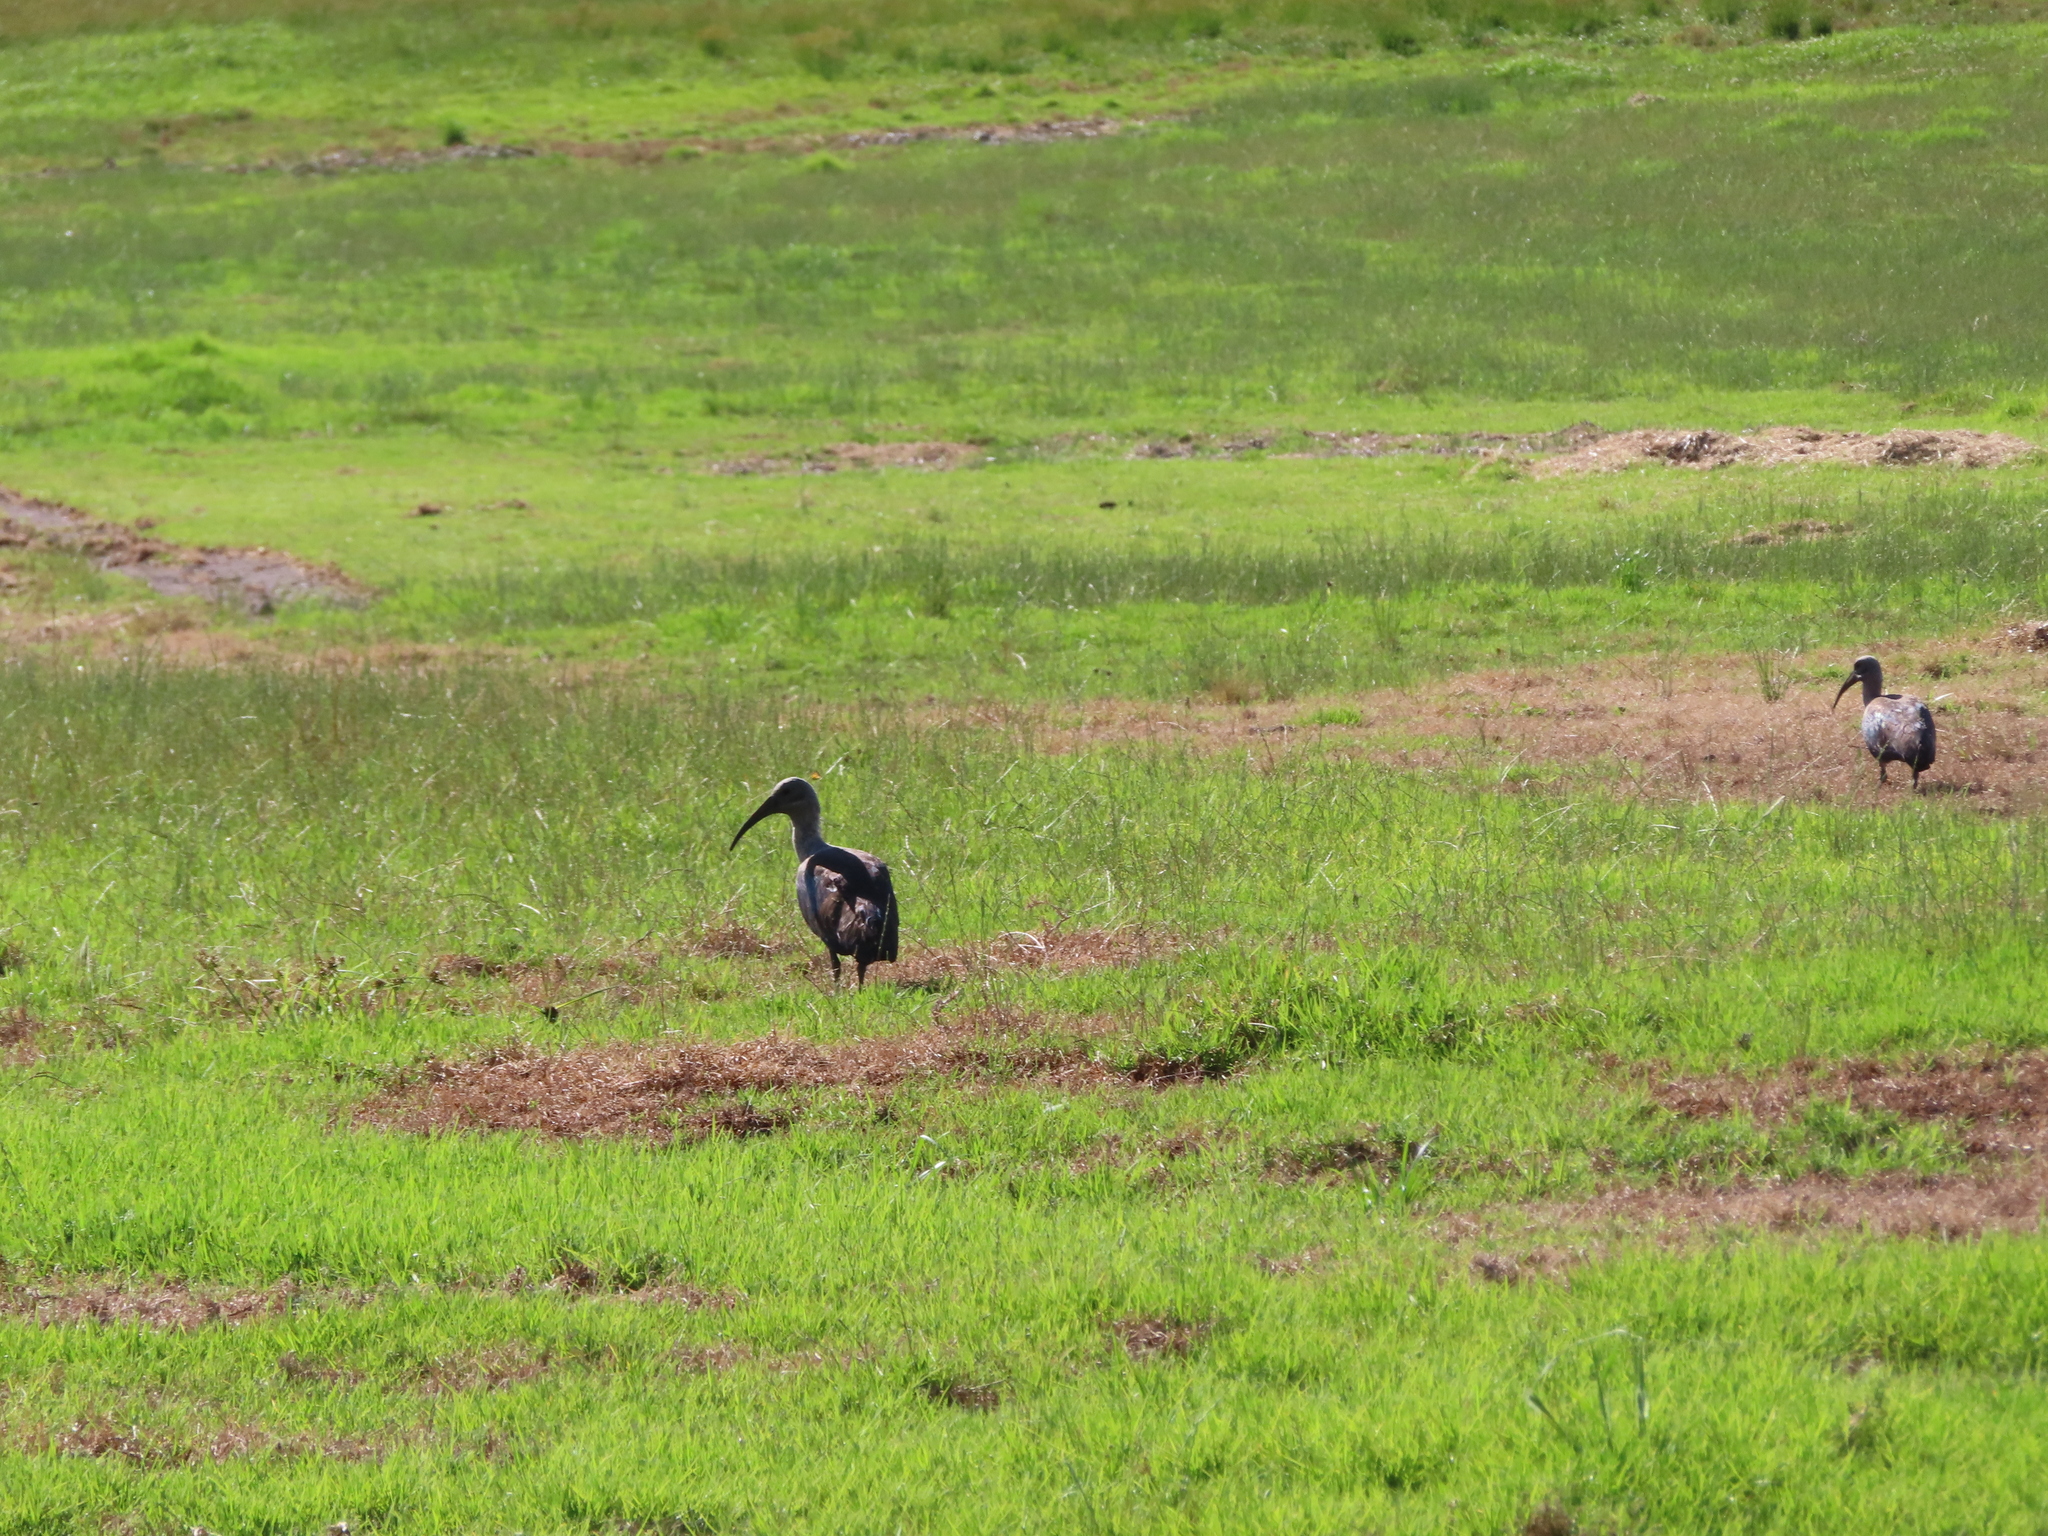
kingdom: Animalia
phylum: Chordata
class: Aves
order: Pelecaniformes
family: Threskiornithidae
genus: Bostrychia
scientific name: Bostrychia hagedash
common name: Hadada ibis
